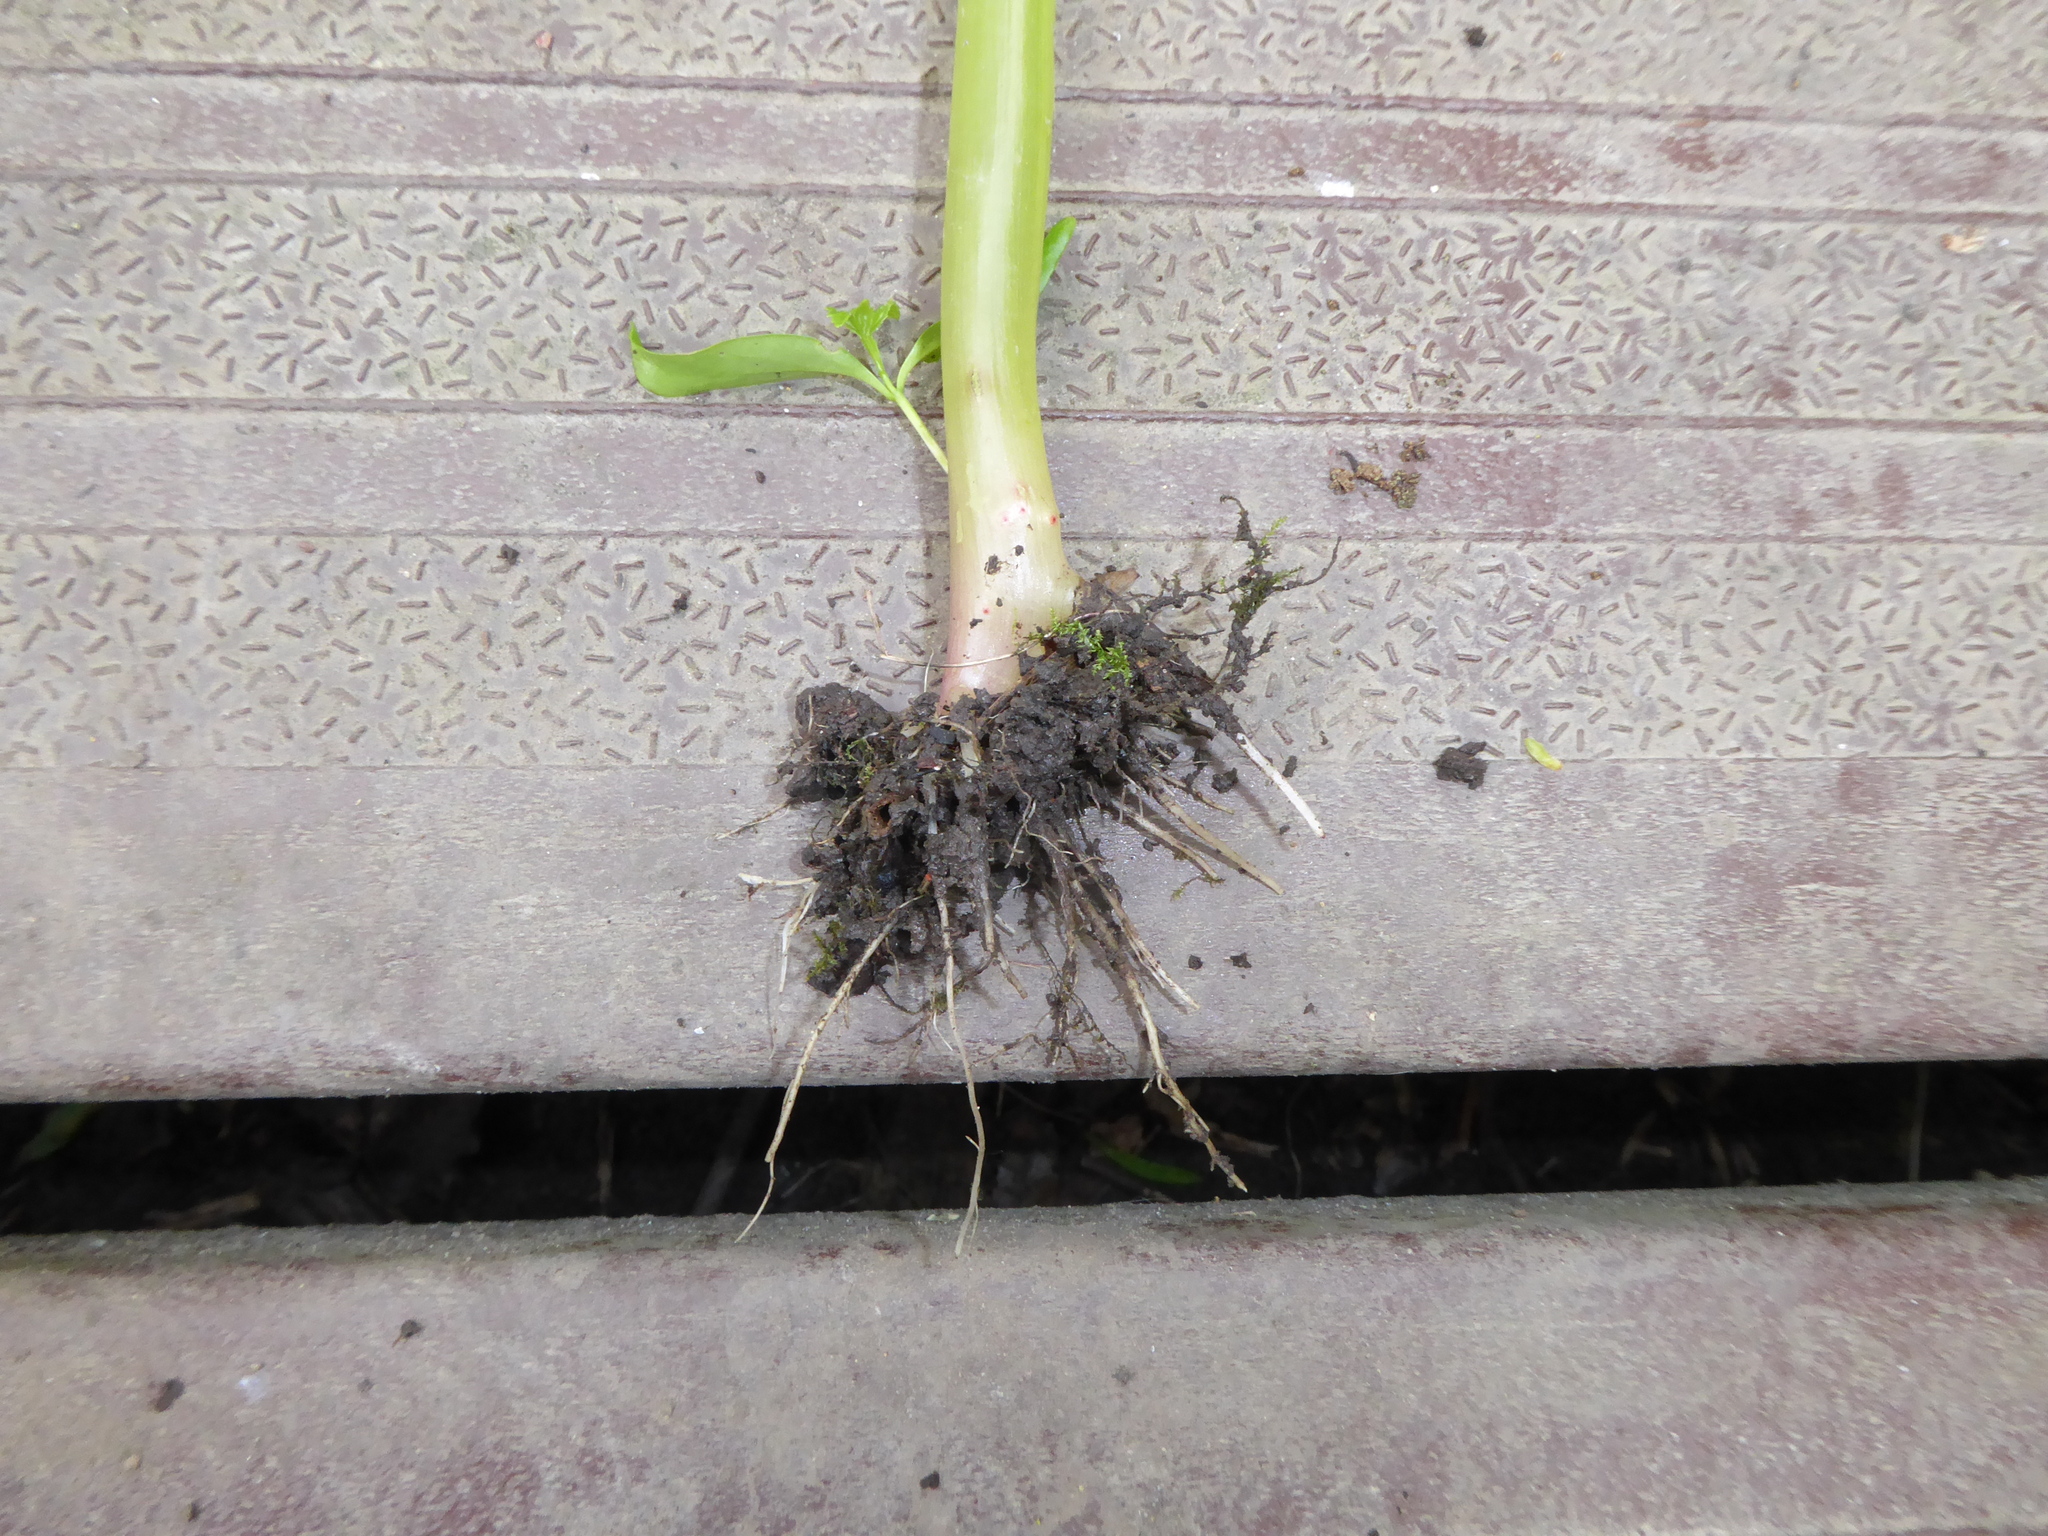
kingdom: Plantae
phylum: Tracheophyta
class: Magnoliopsida
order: Ericales
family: Balsaminaceae
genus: Impatiens
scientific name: Impatiens glandulifera
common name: Himalayan balsam
